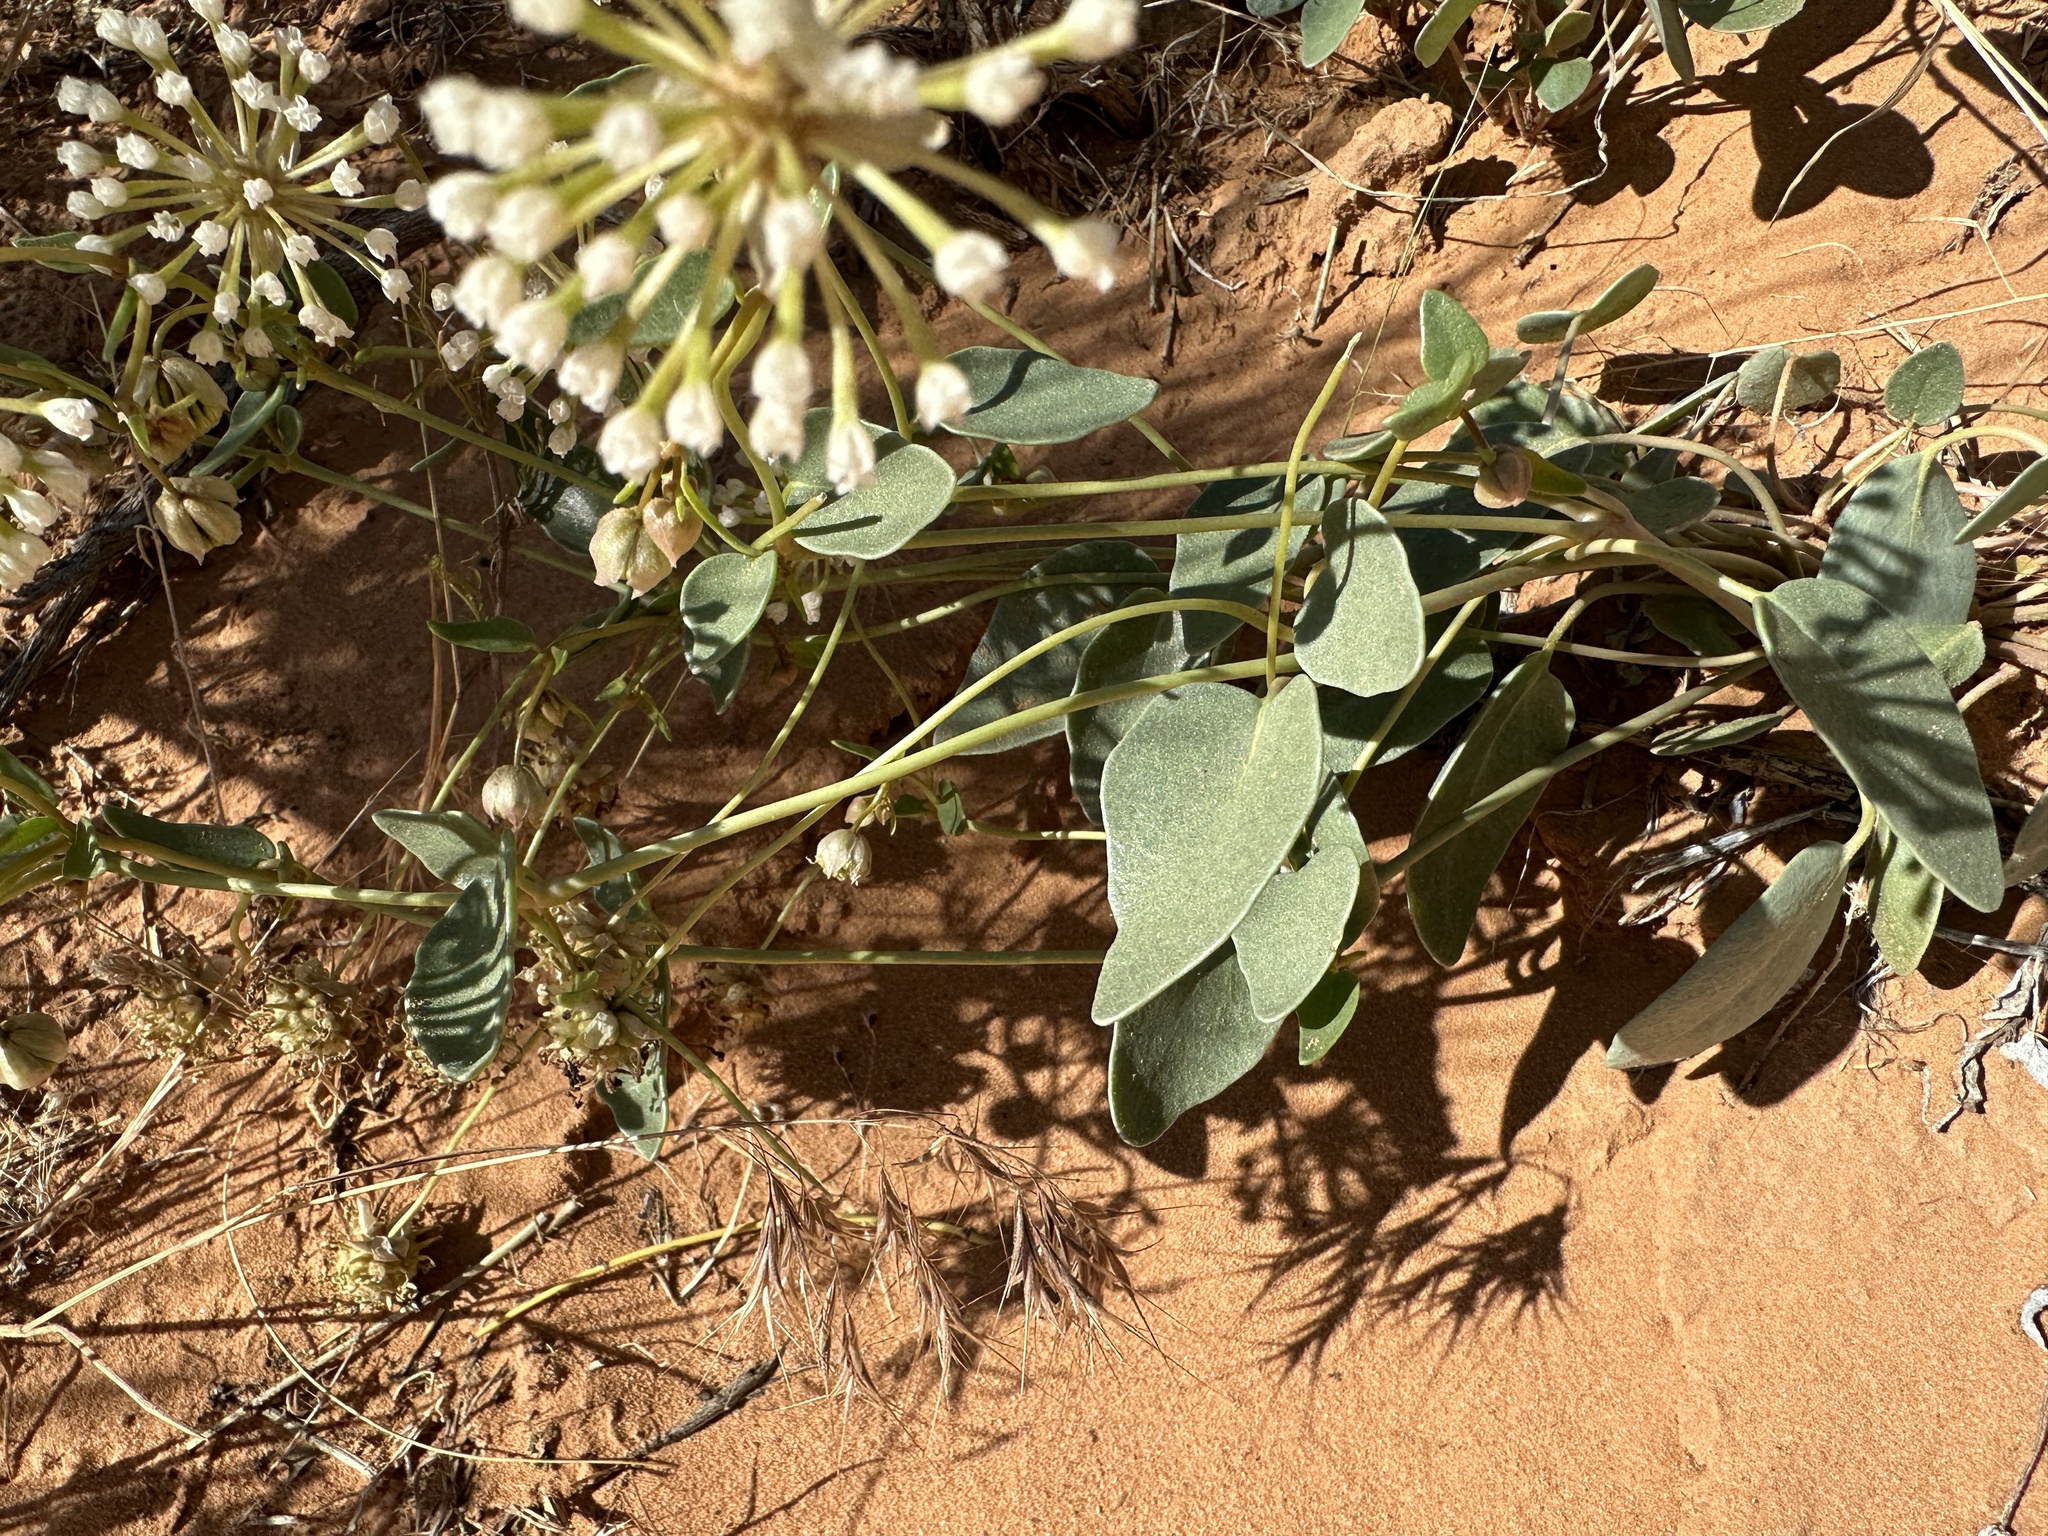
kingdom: Plantae
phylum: Tracheophyta
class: Magnoliopsida
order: Caryophyllales
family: Nyctaginaceae
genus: Abronia
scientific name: Abronia elliptica
